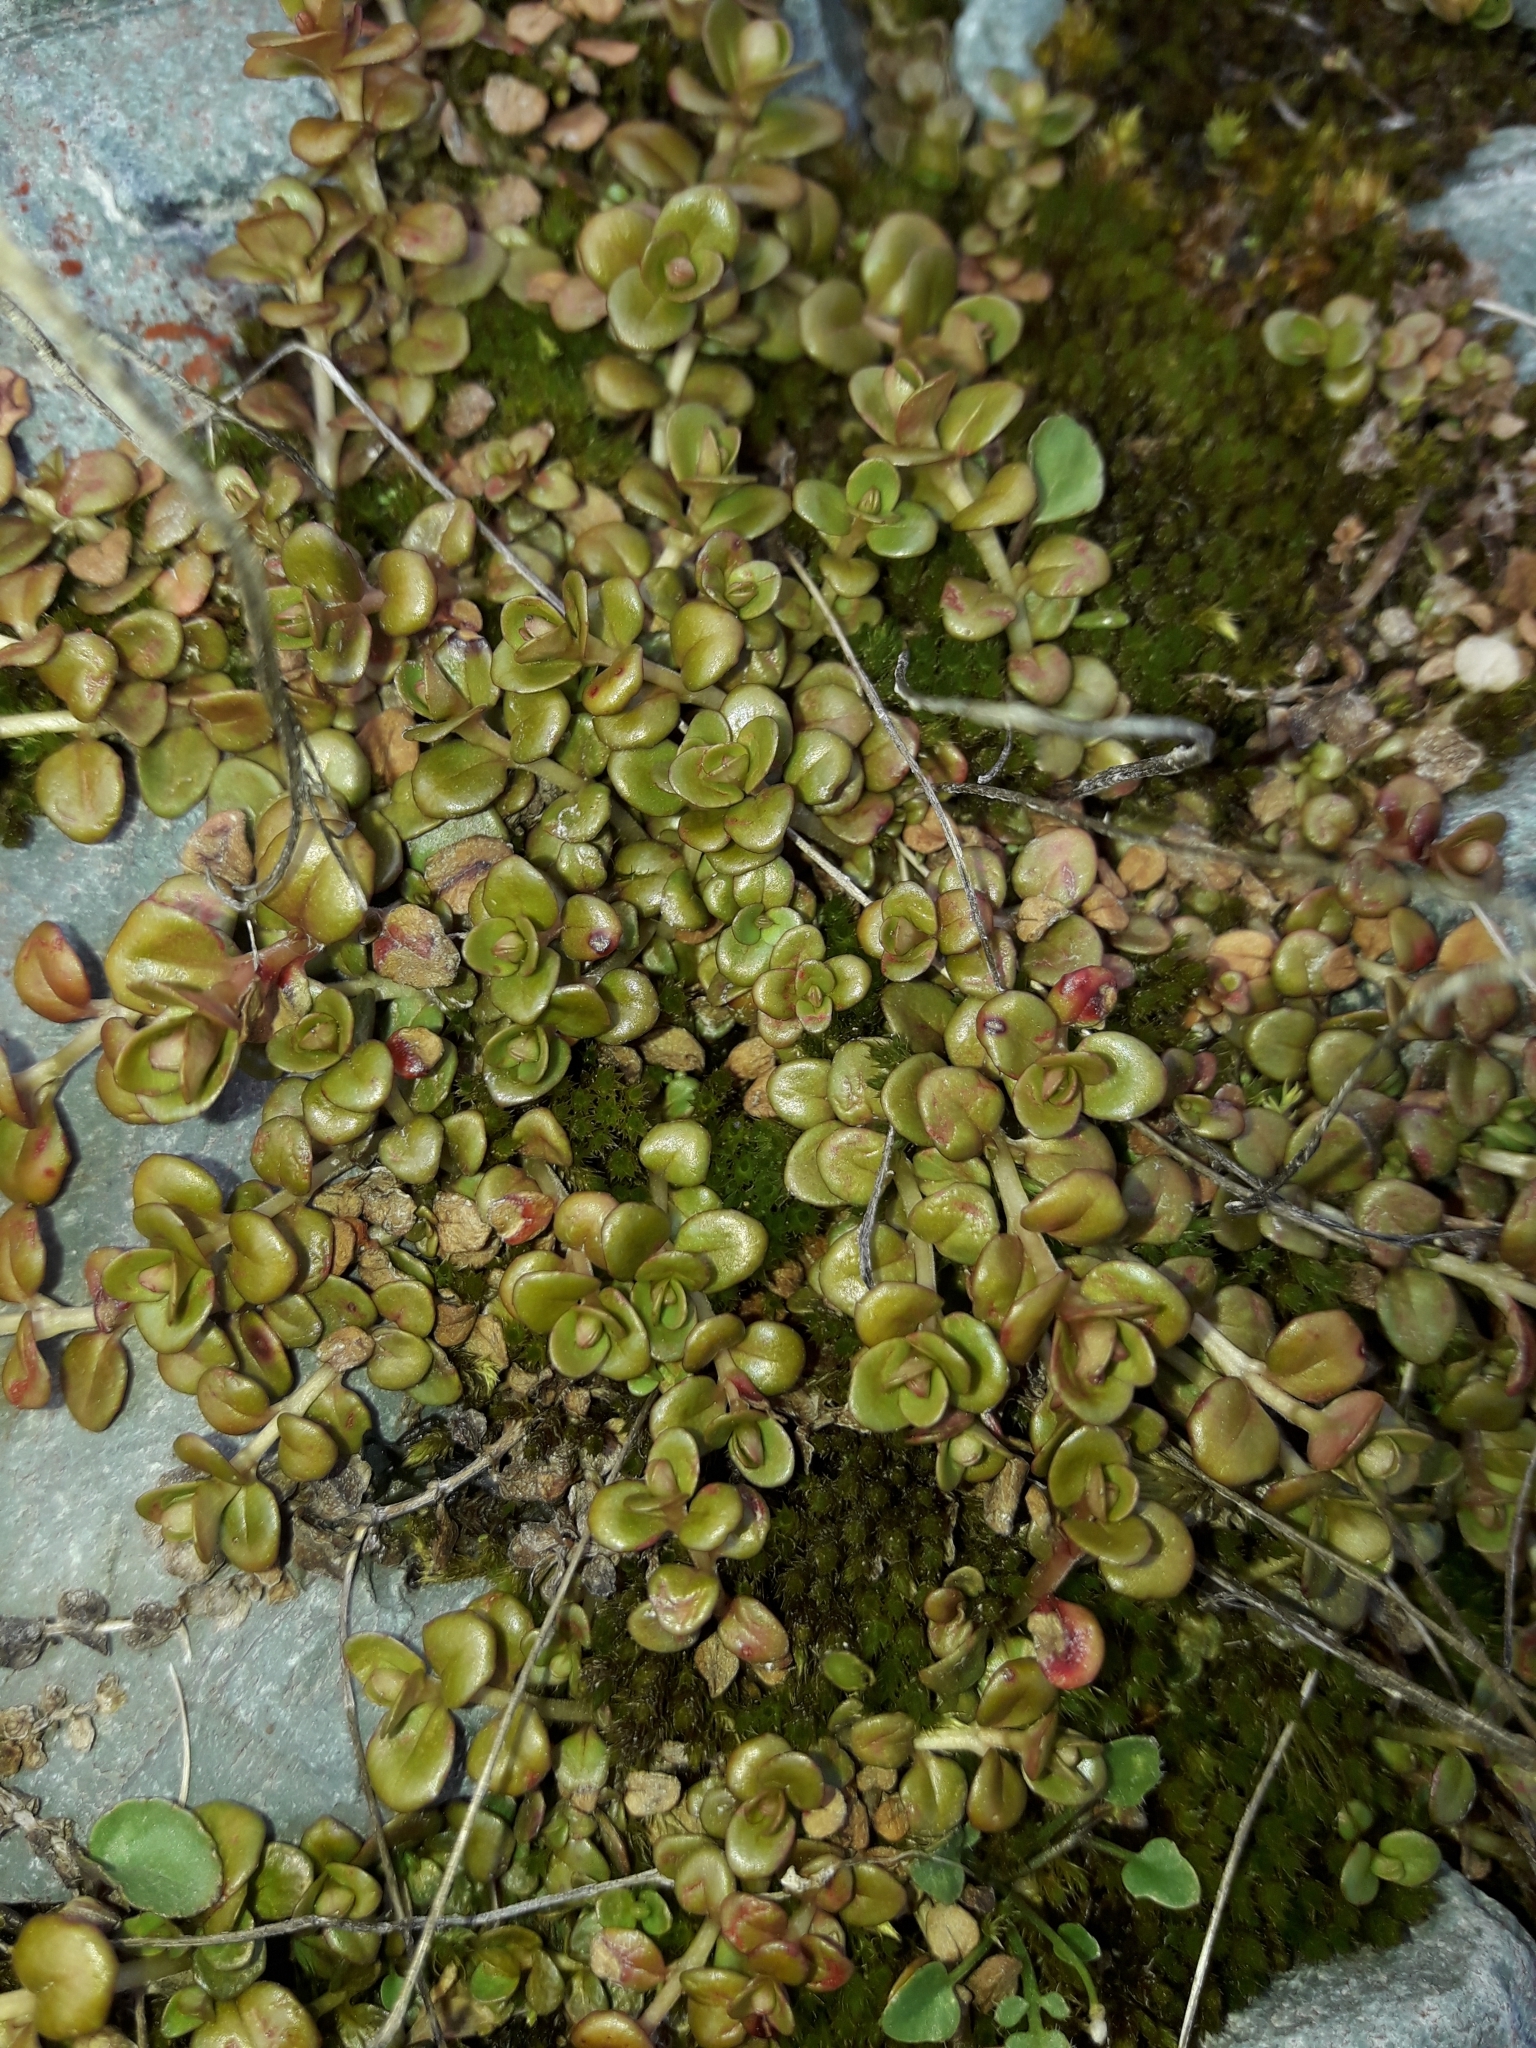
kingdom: Plantae
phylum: Tracheophyta
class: Magnoliopsida
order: Myrtales
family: Onagraceae
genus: Epilobium
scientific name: Epilobium brunnescens
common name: New zealand willowherb
